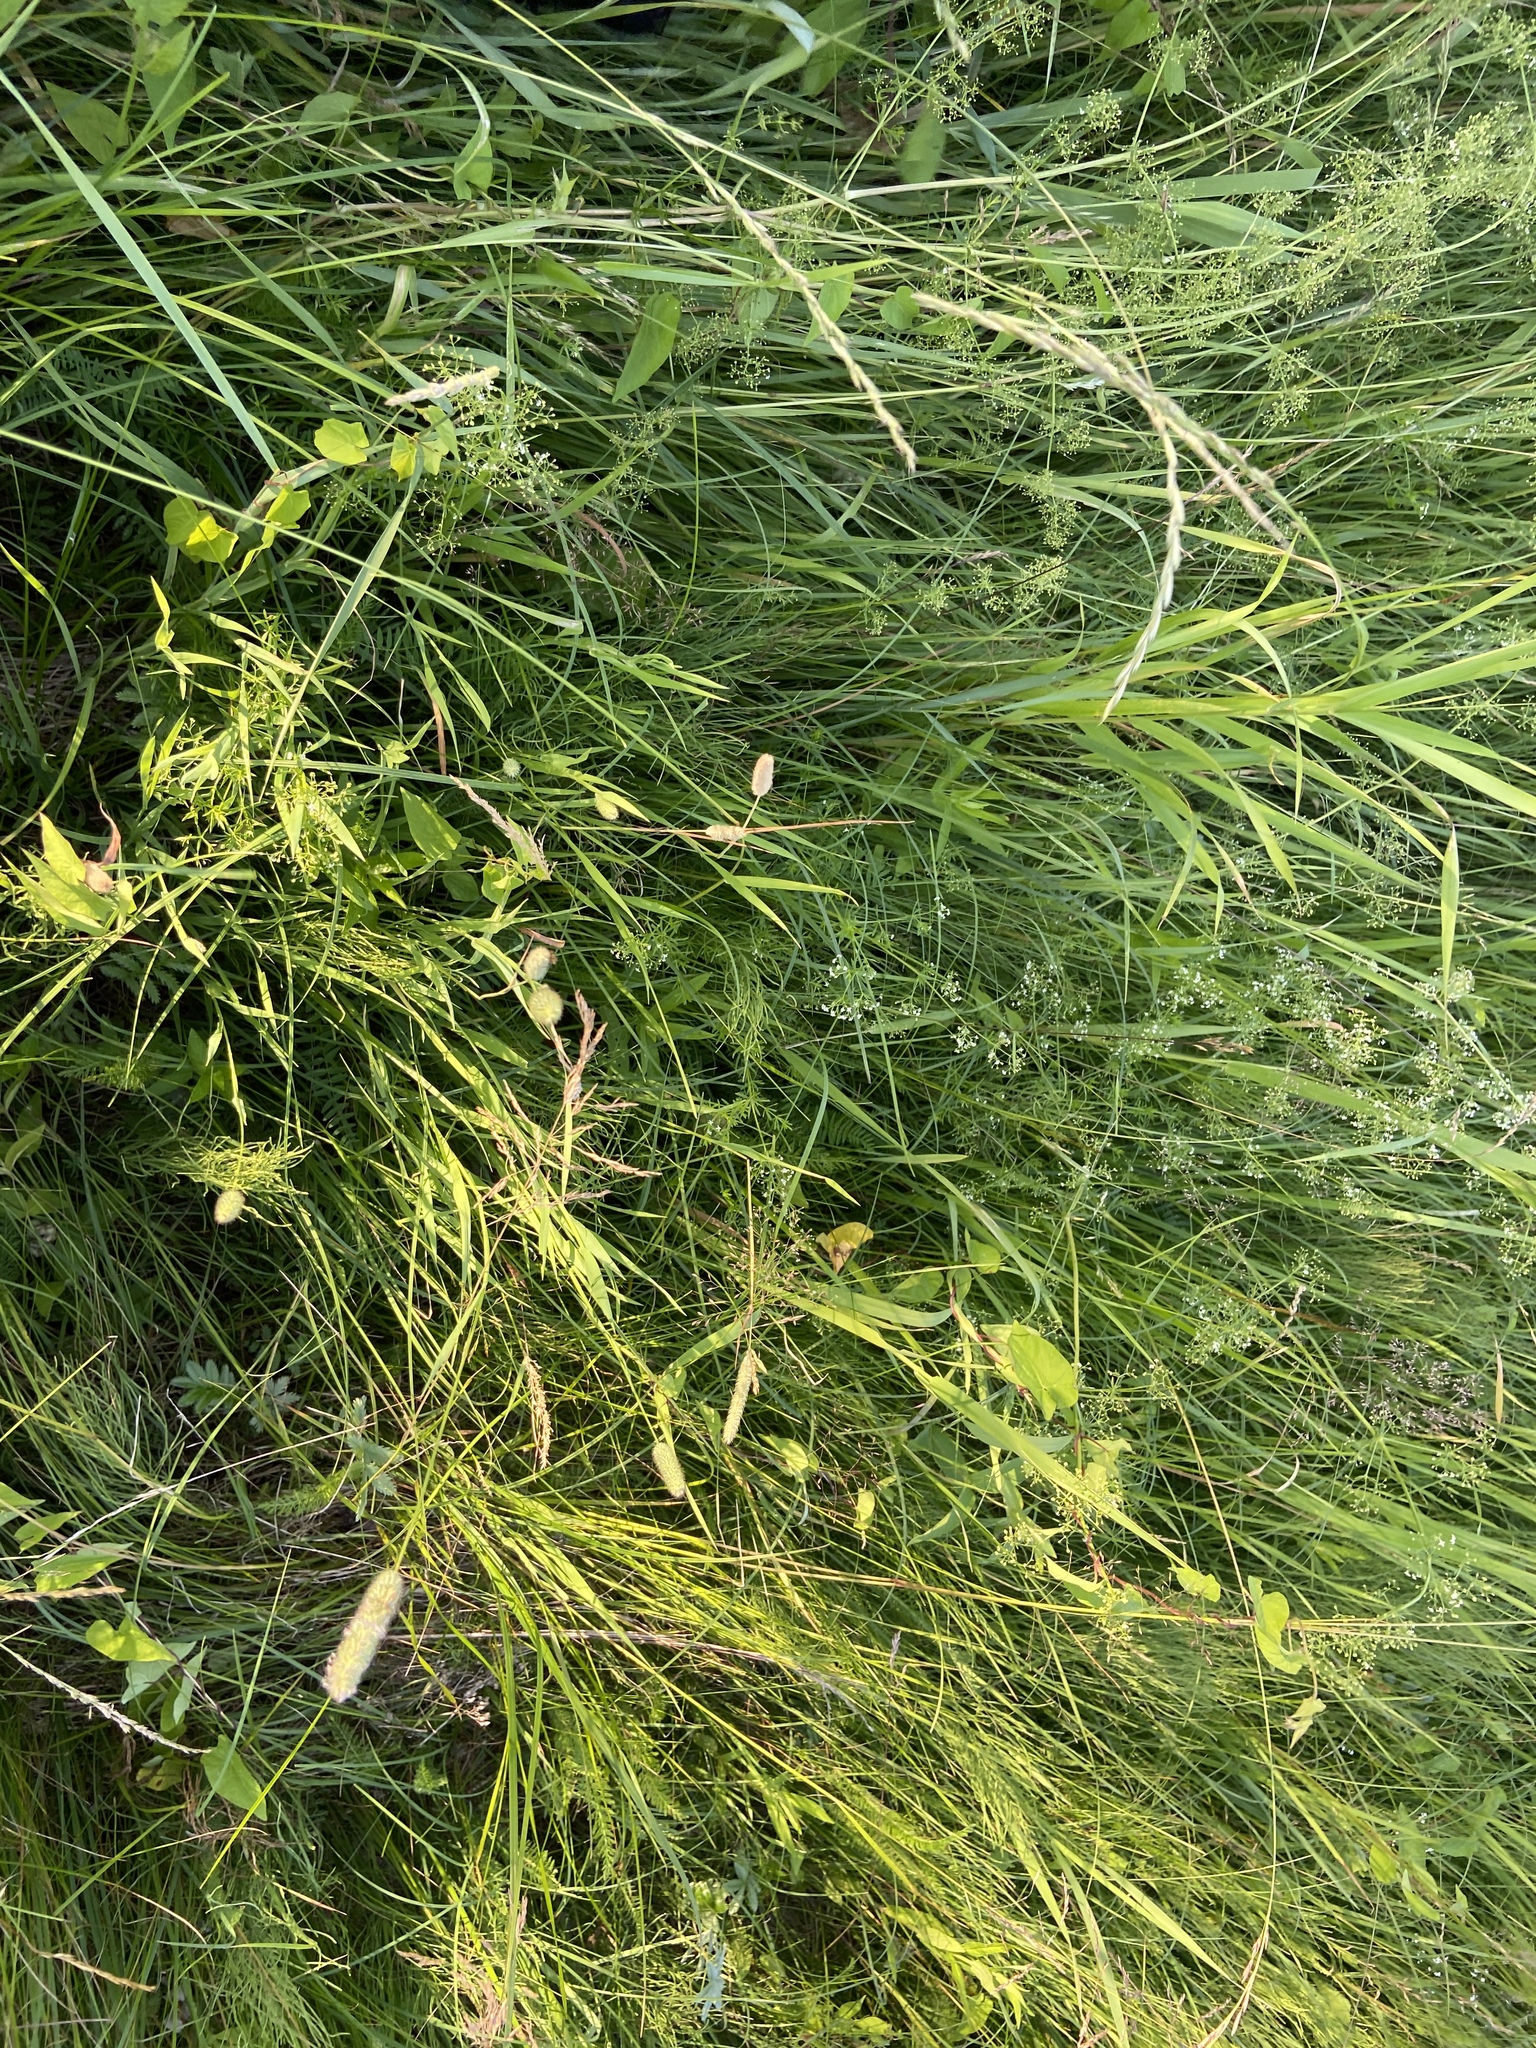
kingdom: Plantae
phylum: Tracheophyta
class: Liliopsida
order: Poales
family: Poaceae
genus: Phleum
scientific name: Phleum pratense
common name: Timothy grass
